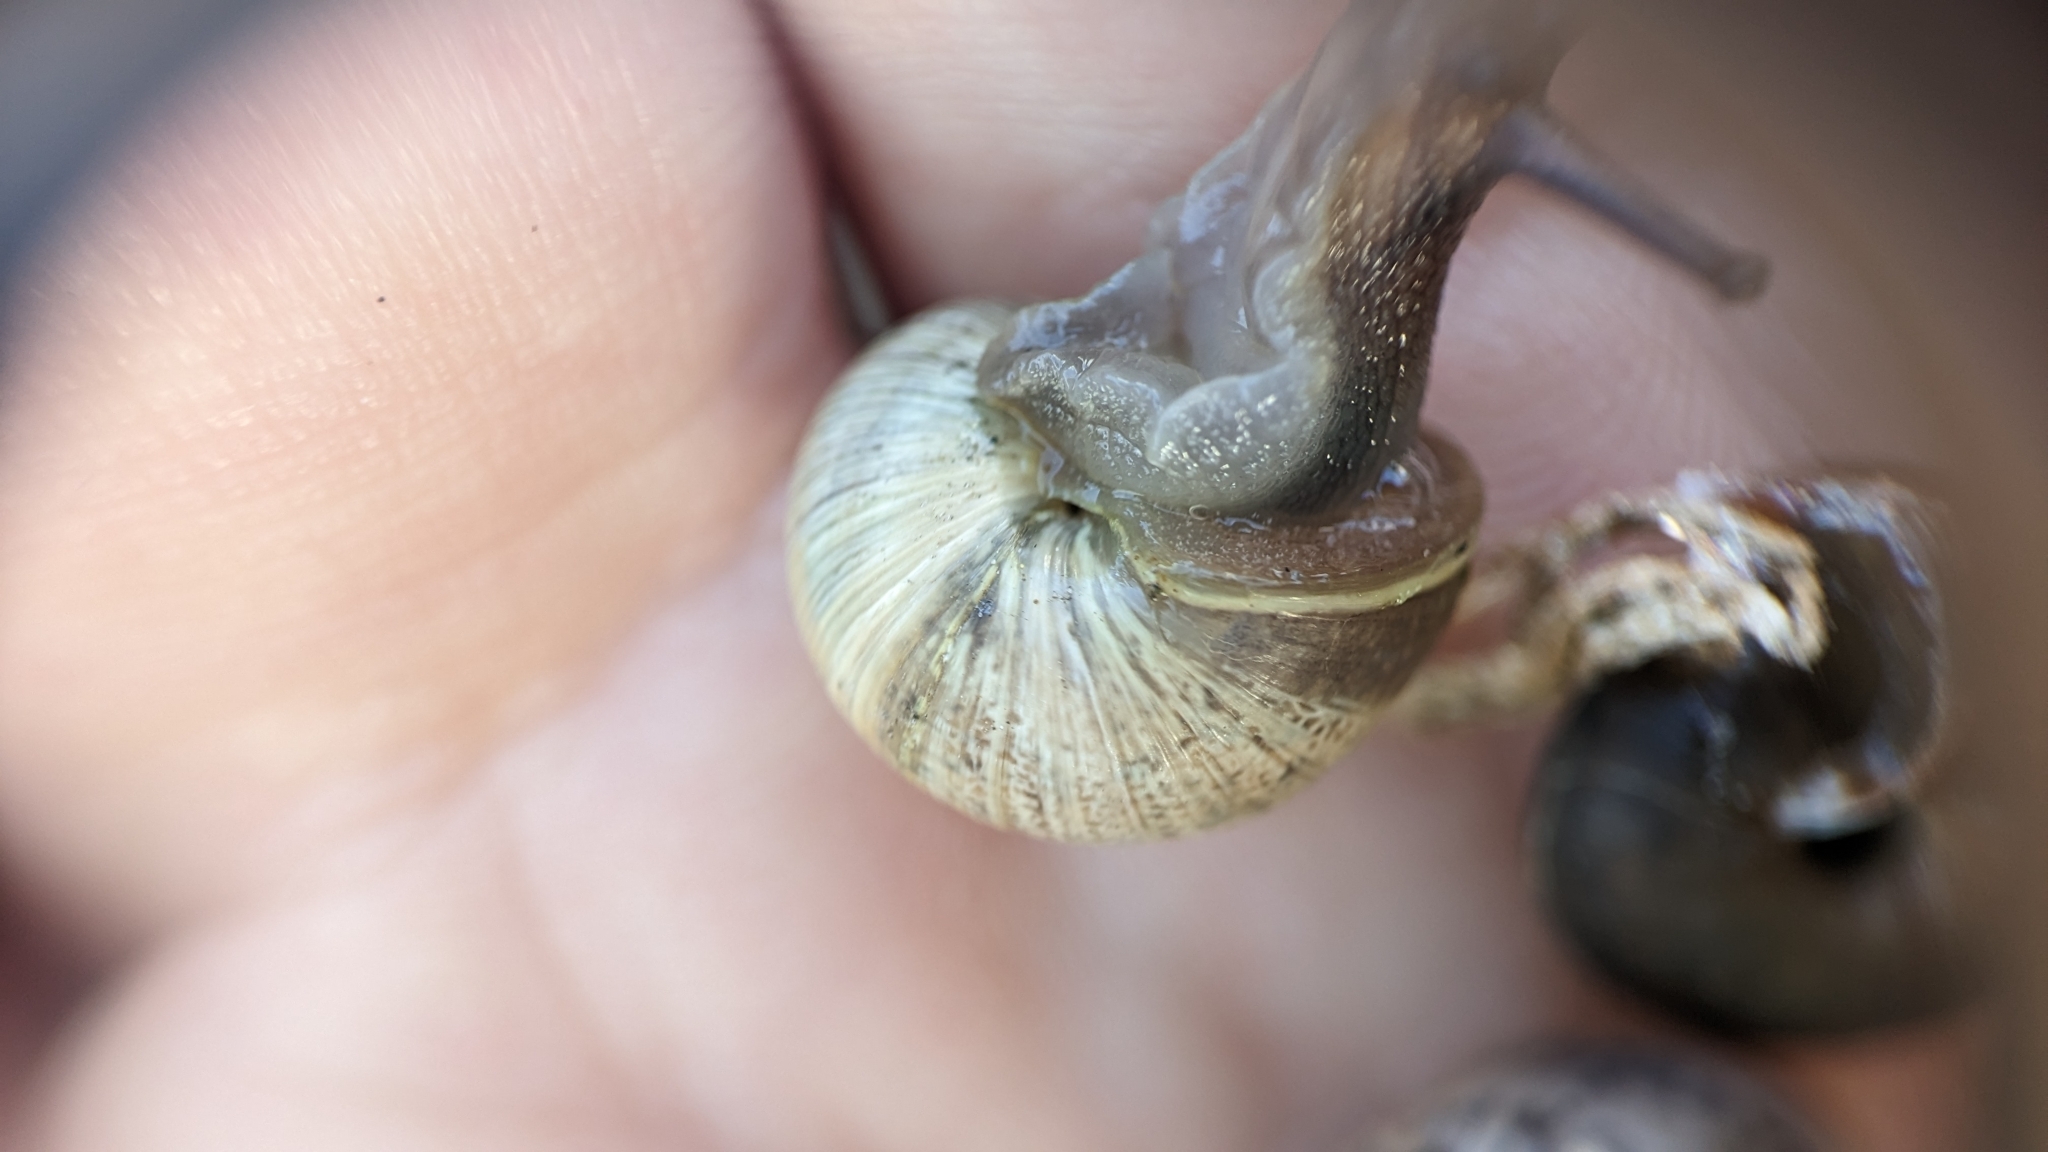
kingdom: Animalia
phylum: Mollusca
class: Gastropoda
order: Stylommatophora
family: Helicidae
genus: Cornu
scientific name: Cornu aspersum
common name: Brown garden snail
